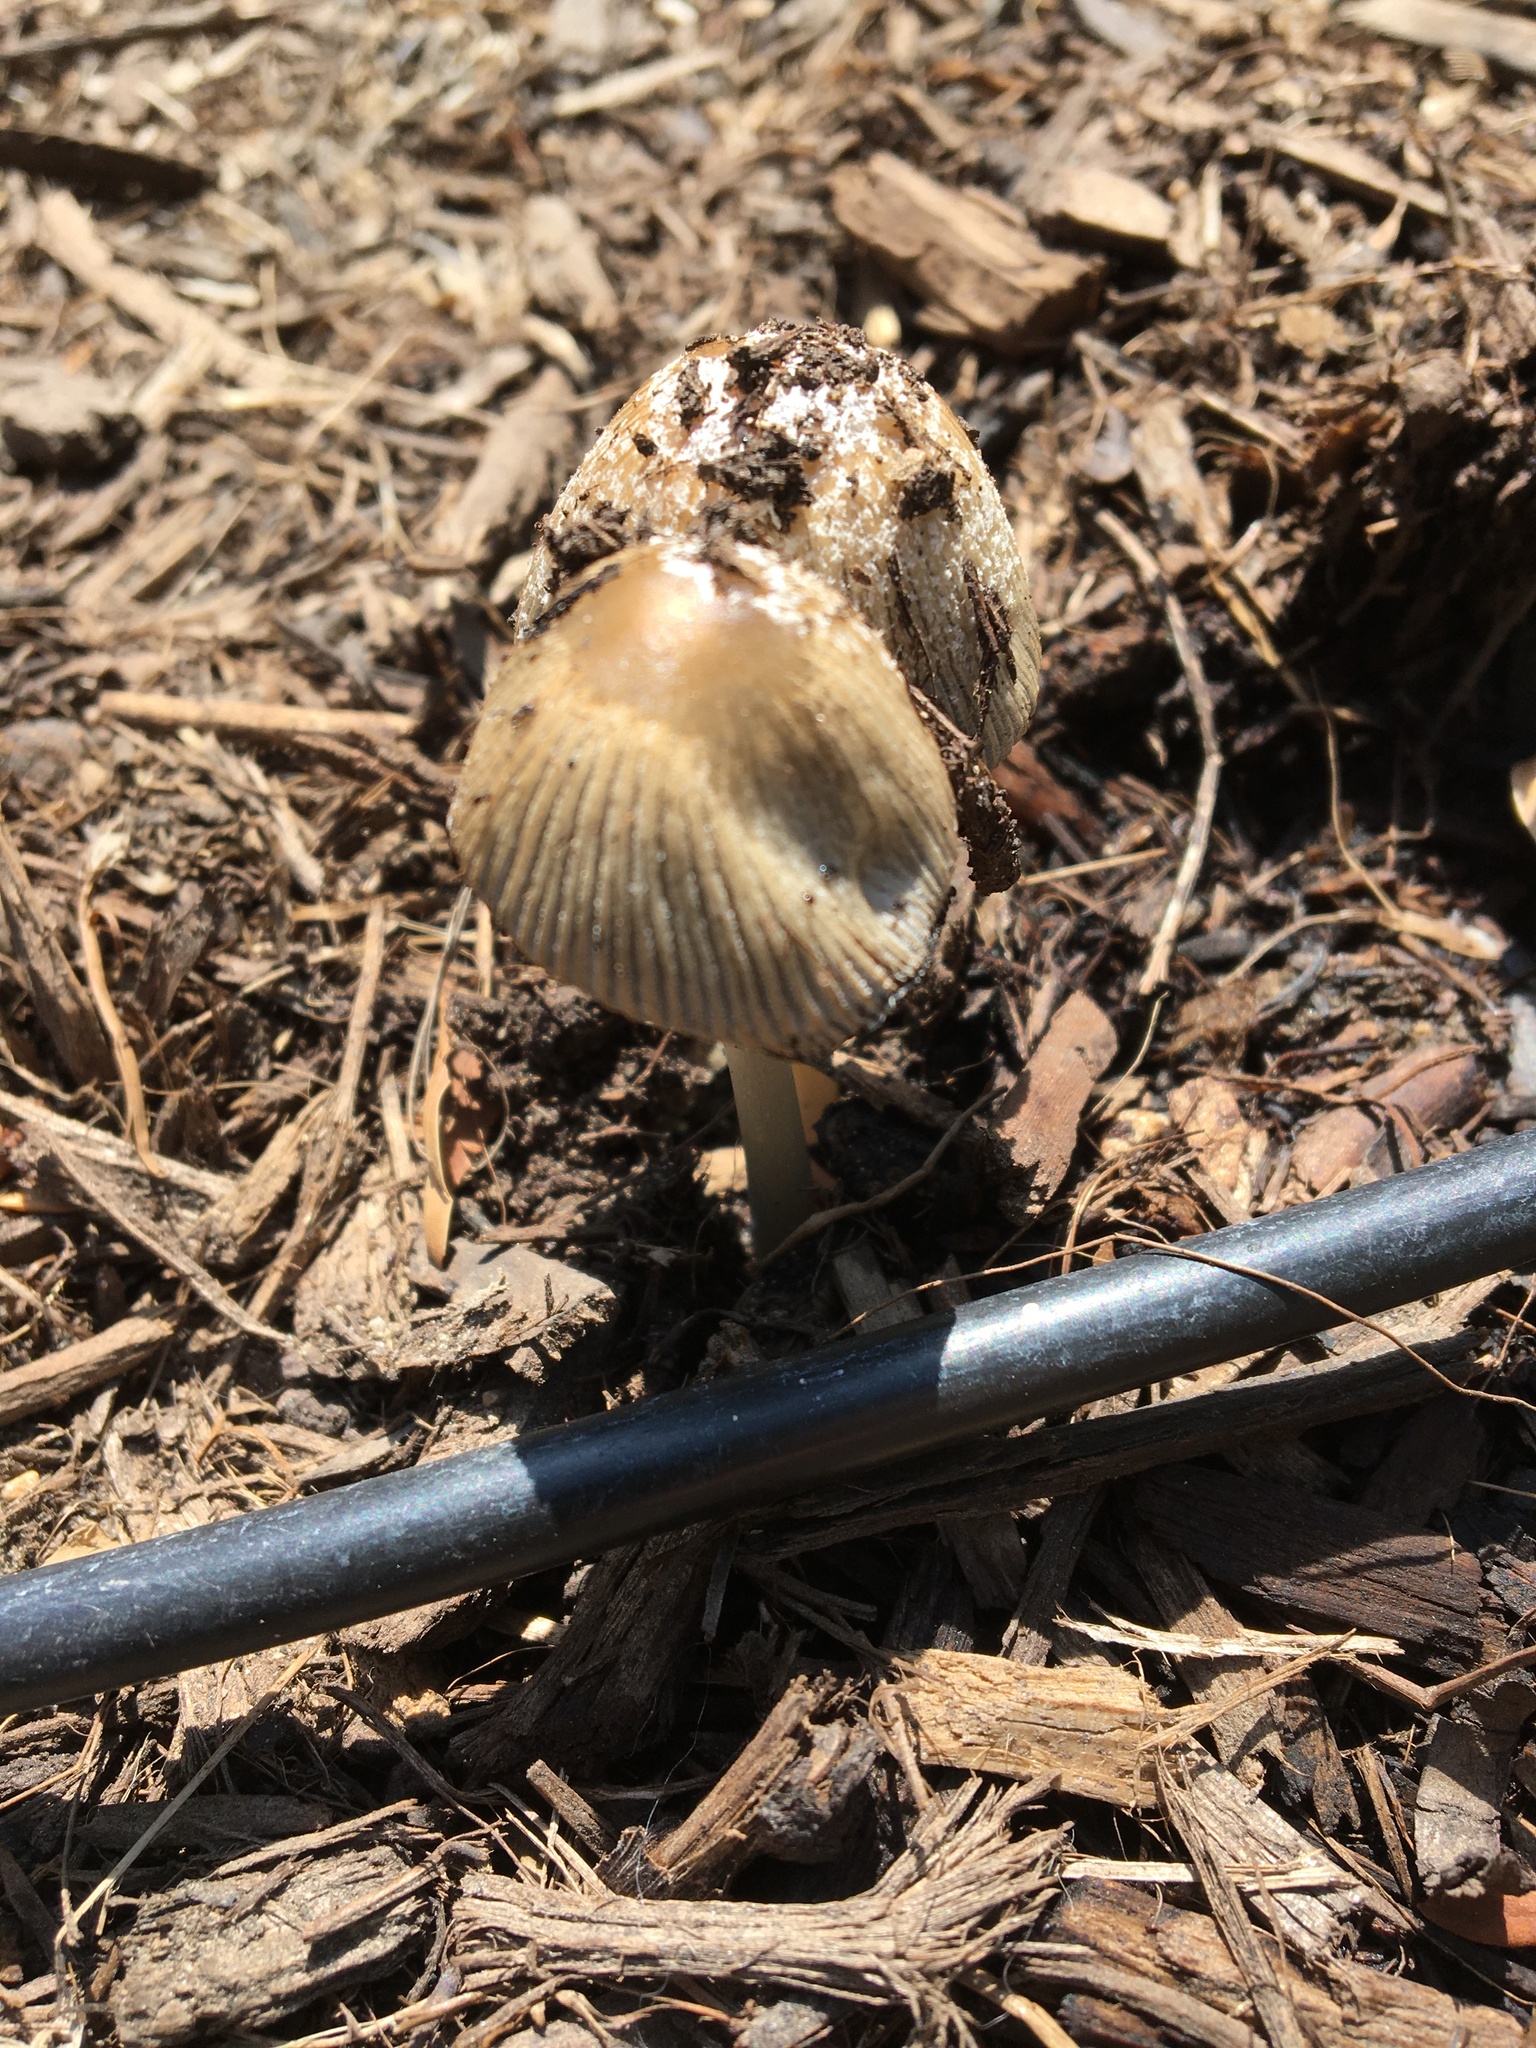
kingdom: Fungi
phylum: Basidiomycota
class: Agaricomycetes
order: Agaricales
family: Psathyrellaceae
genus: Coprinellus
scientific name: Coprinellus flocculosus
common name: Flocculose inkcap
